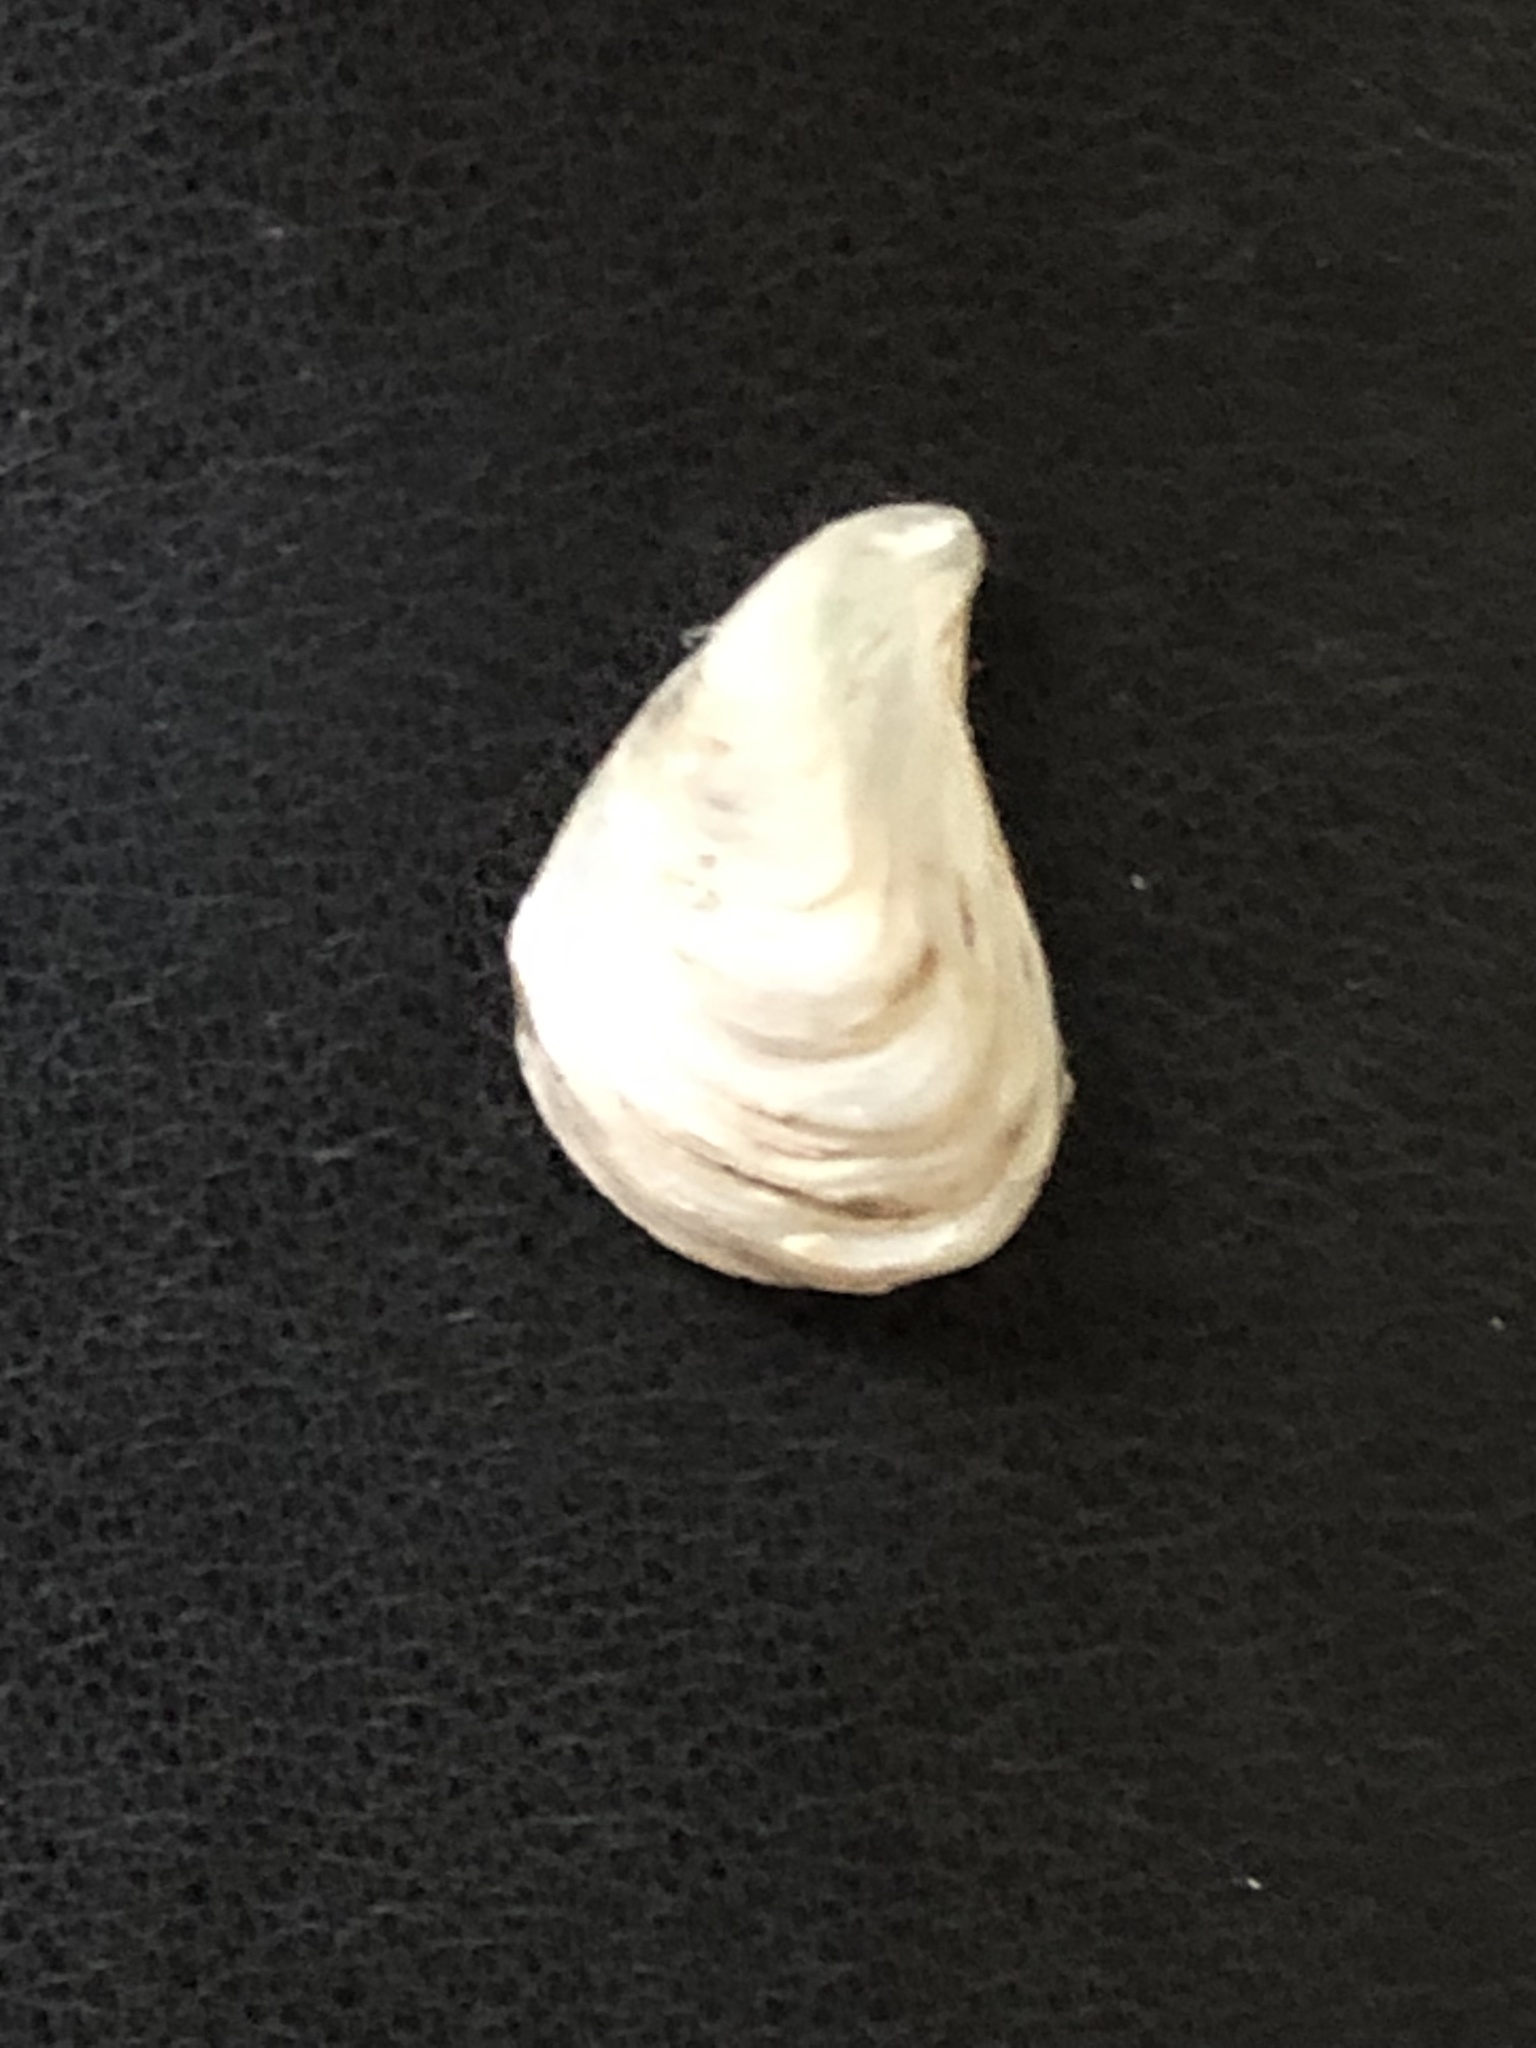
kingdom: Animalia
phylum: Mollusca
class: Bivalvia
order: Myida
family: Dreissenidae
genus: Dreissena
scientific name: Dreissena bugensis
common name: Quagga mussel
